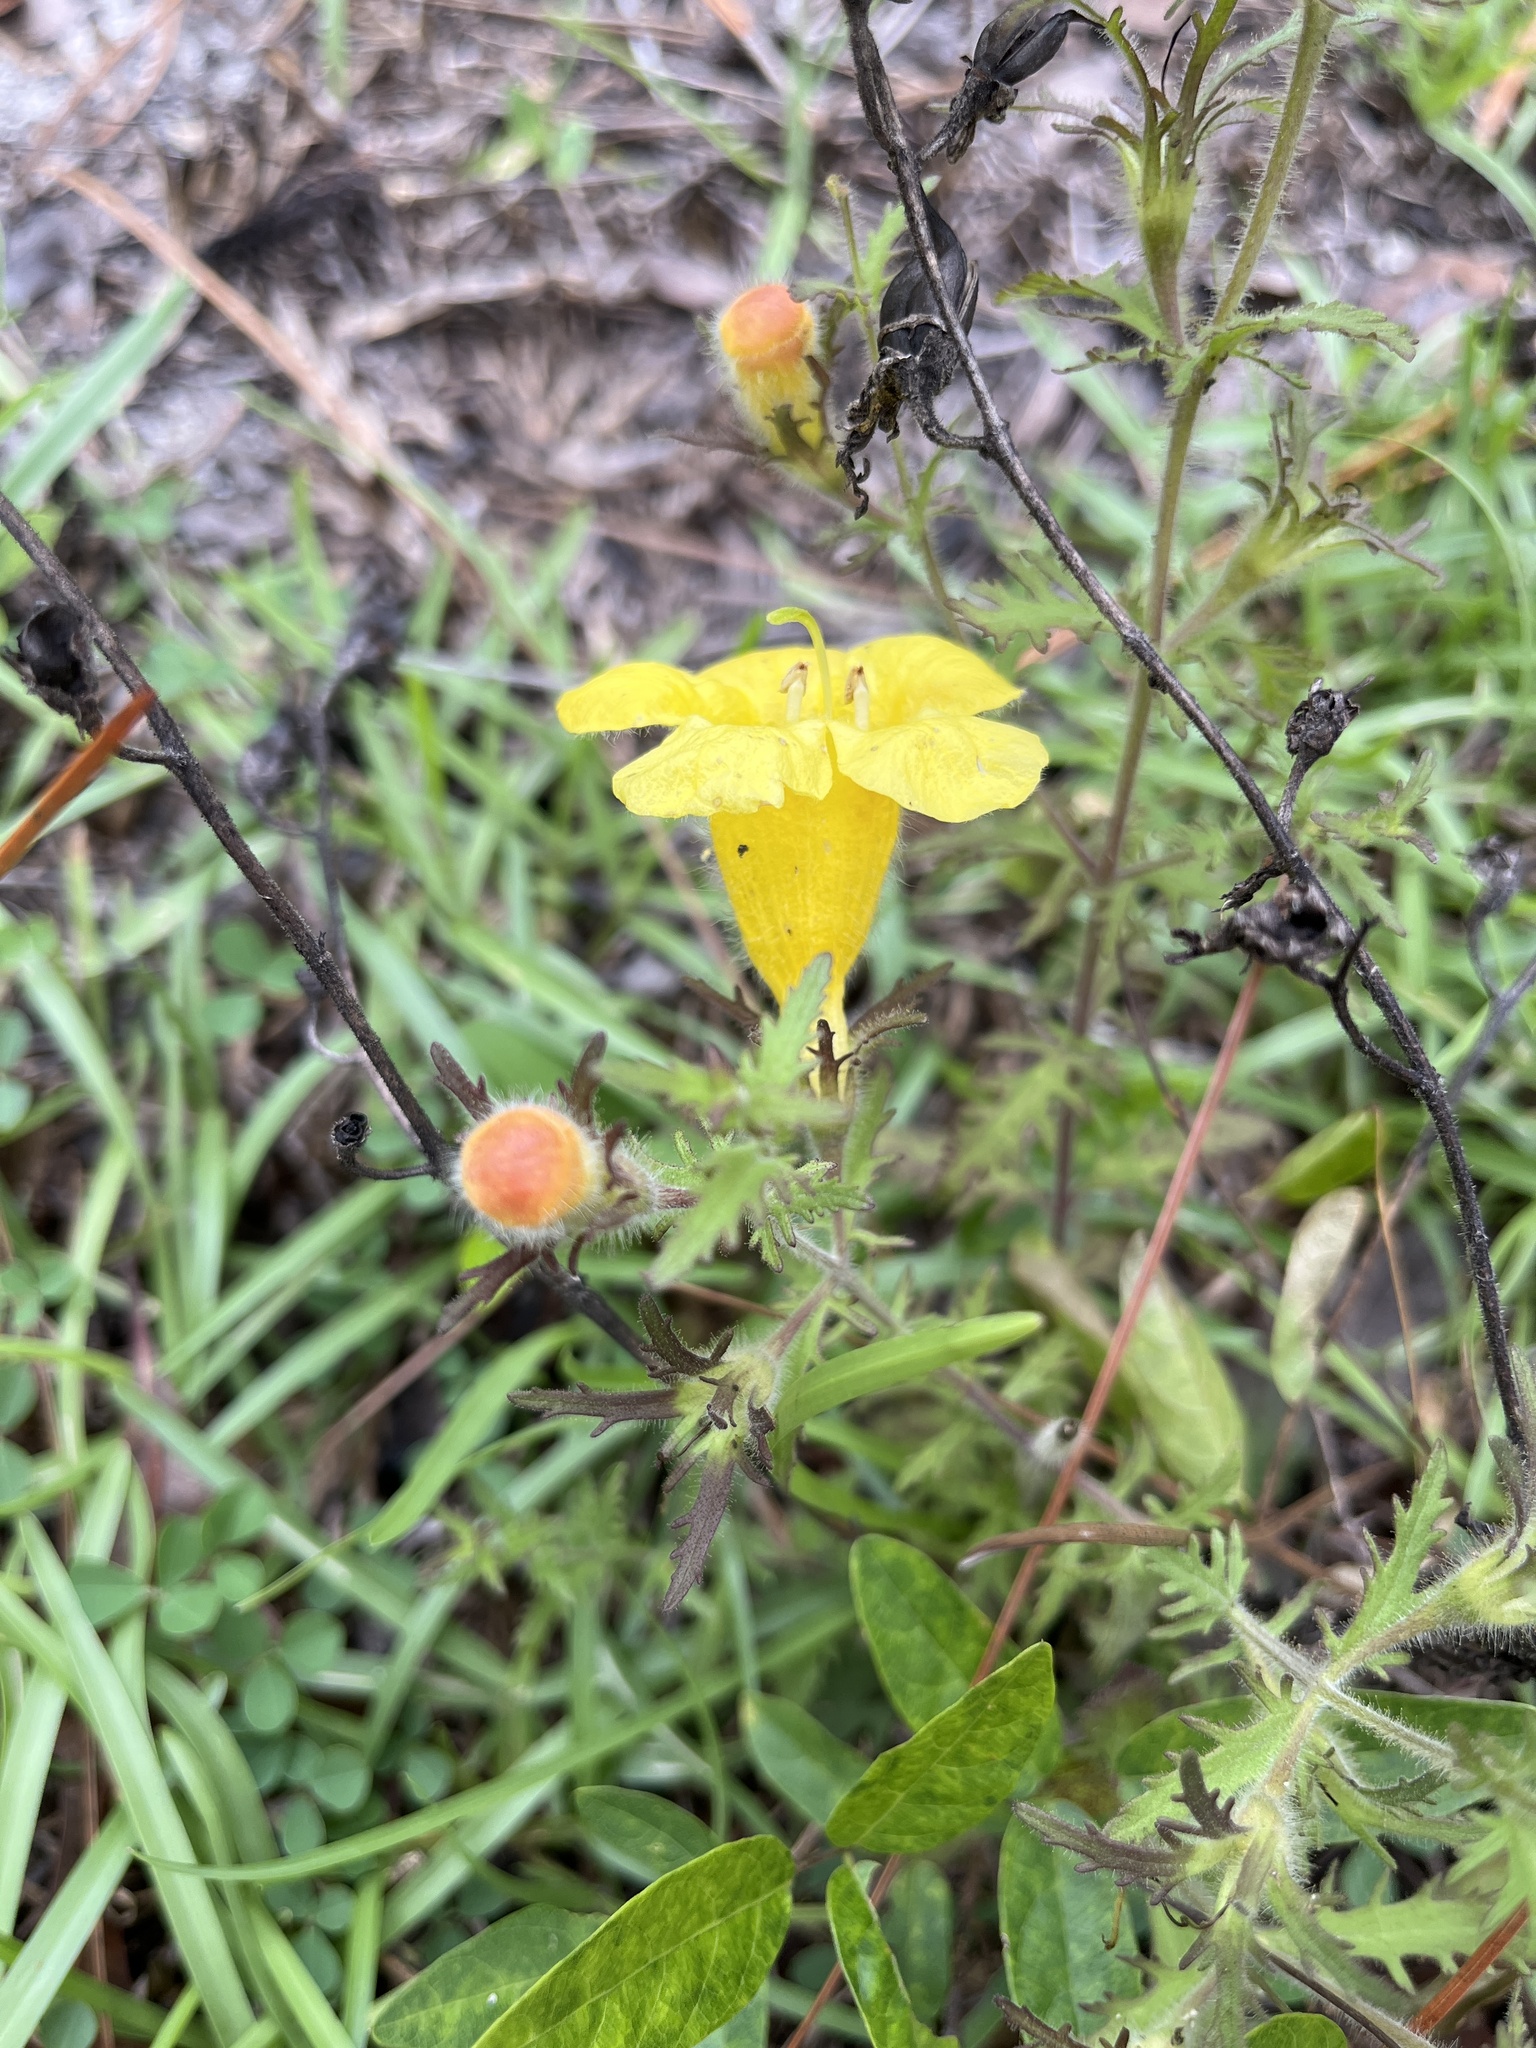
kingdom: Plantae
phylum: Tracheophyta
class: Magnoliopsida
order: Lamiales
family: Orobanchaceae
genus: Aureolaria
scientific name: Aureolaria pectinata
